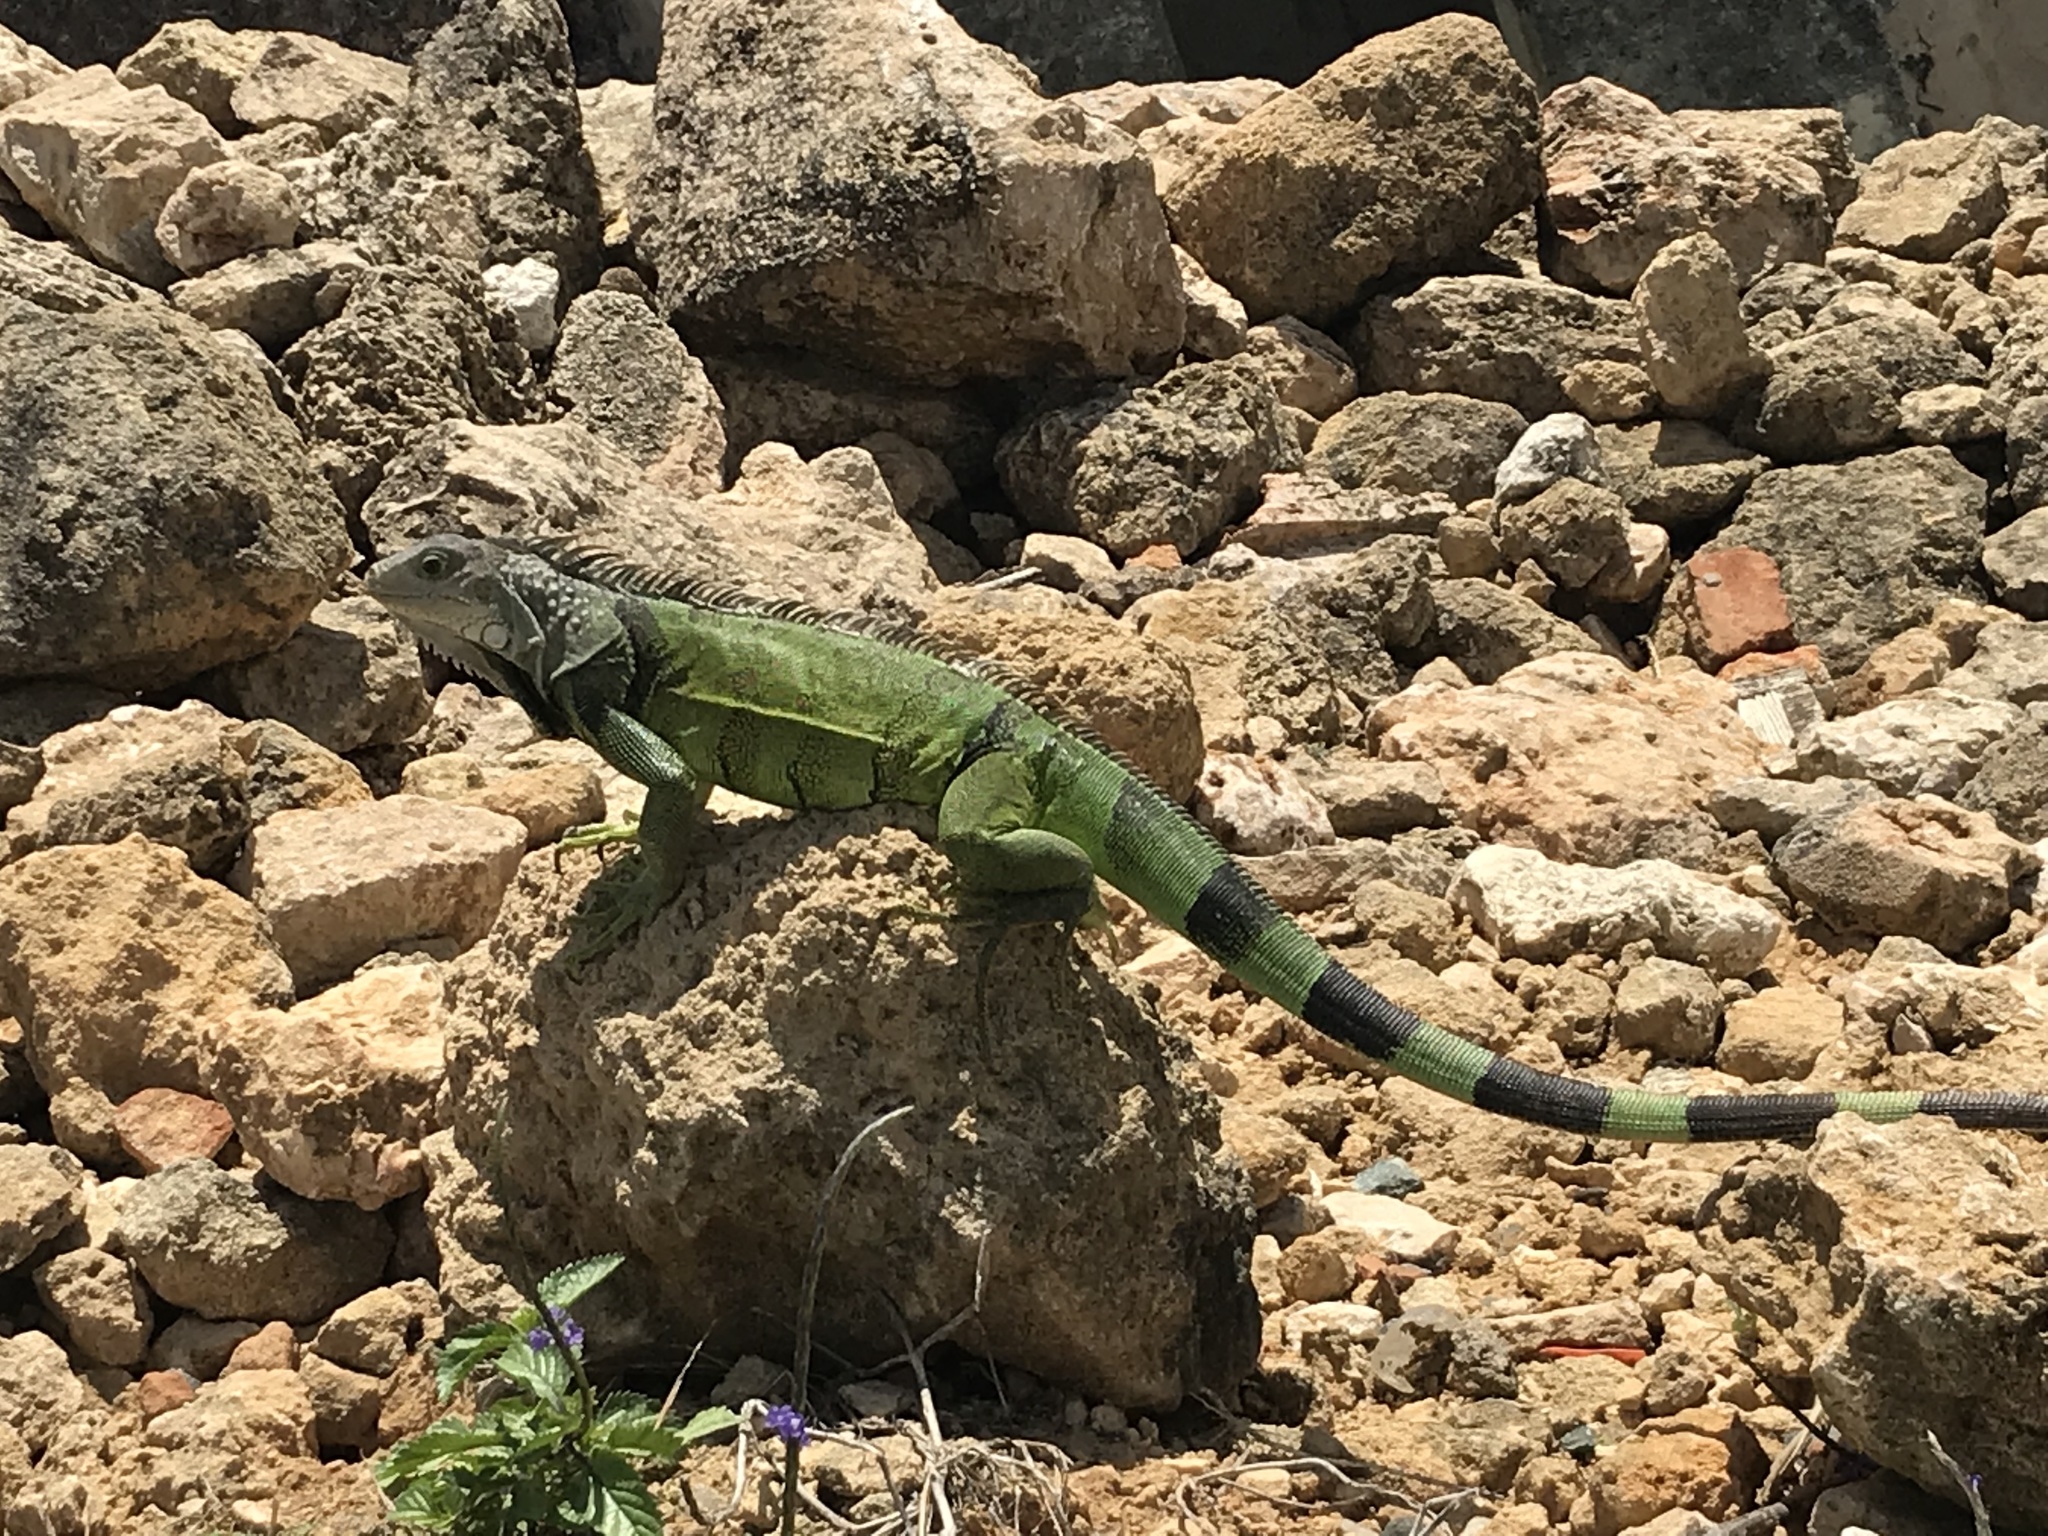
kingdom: Animalia
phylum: Chordata
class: Squamata
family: Iguanidae
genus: Iguana
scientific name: Iguana iguana
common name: Green iguana
